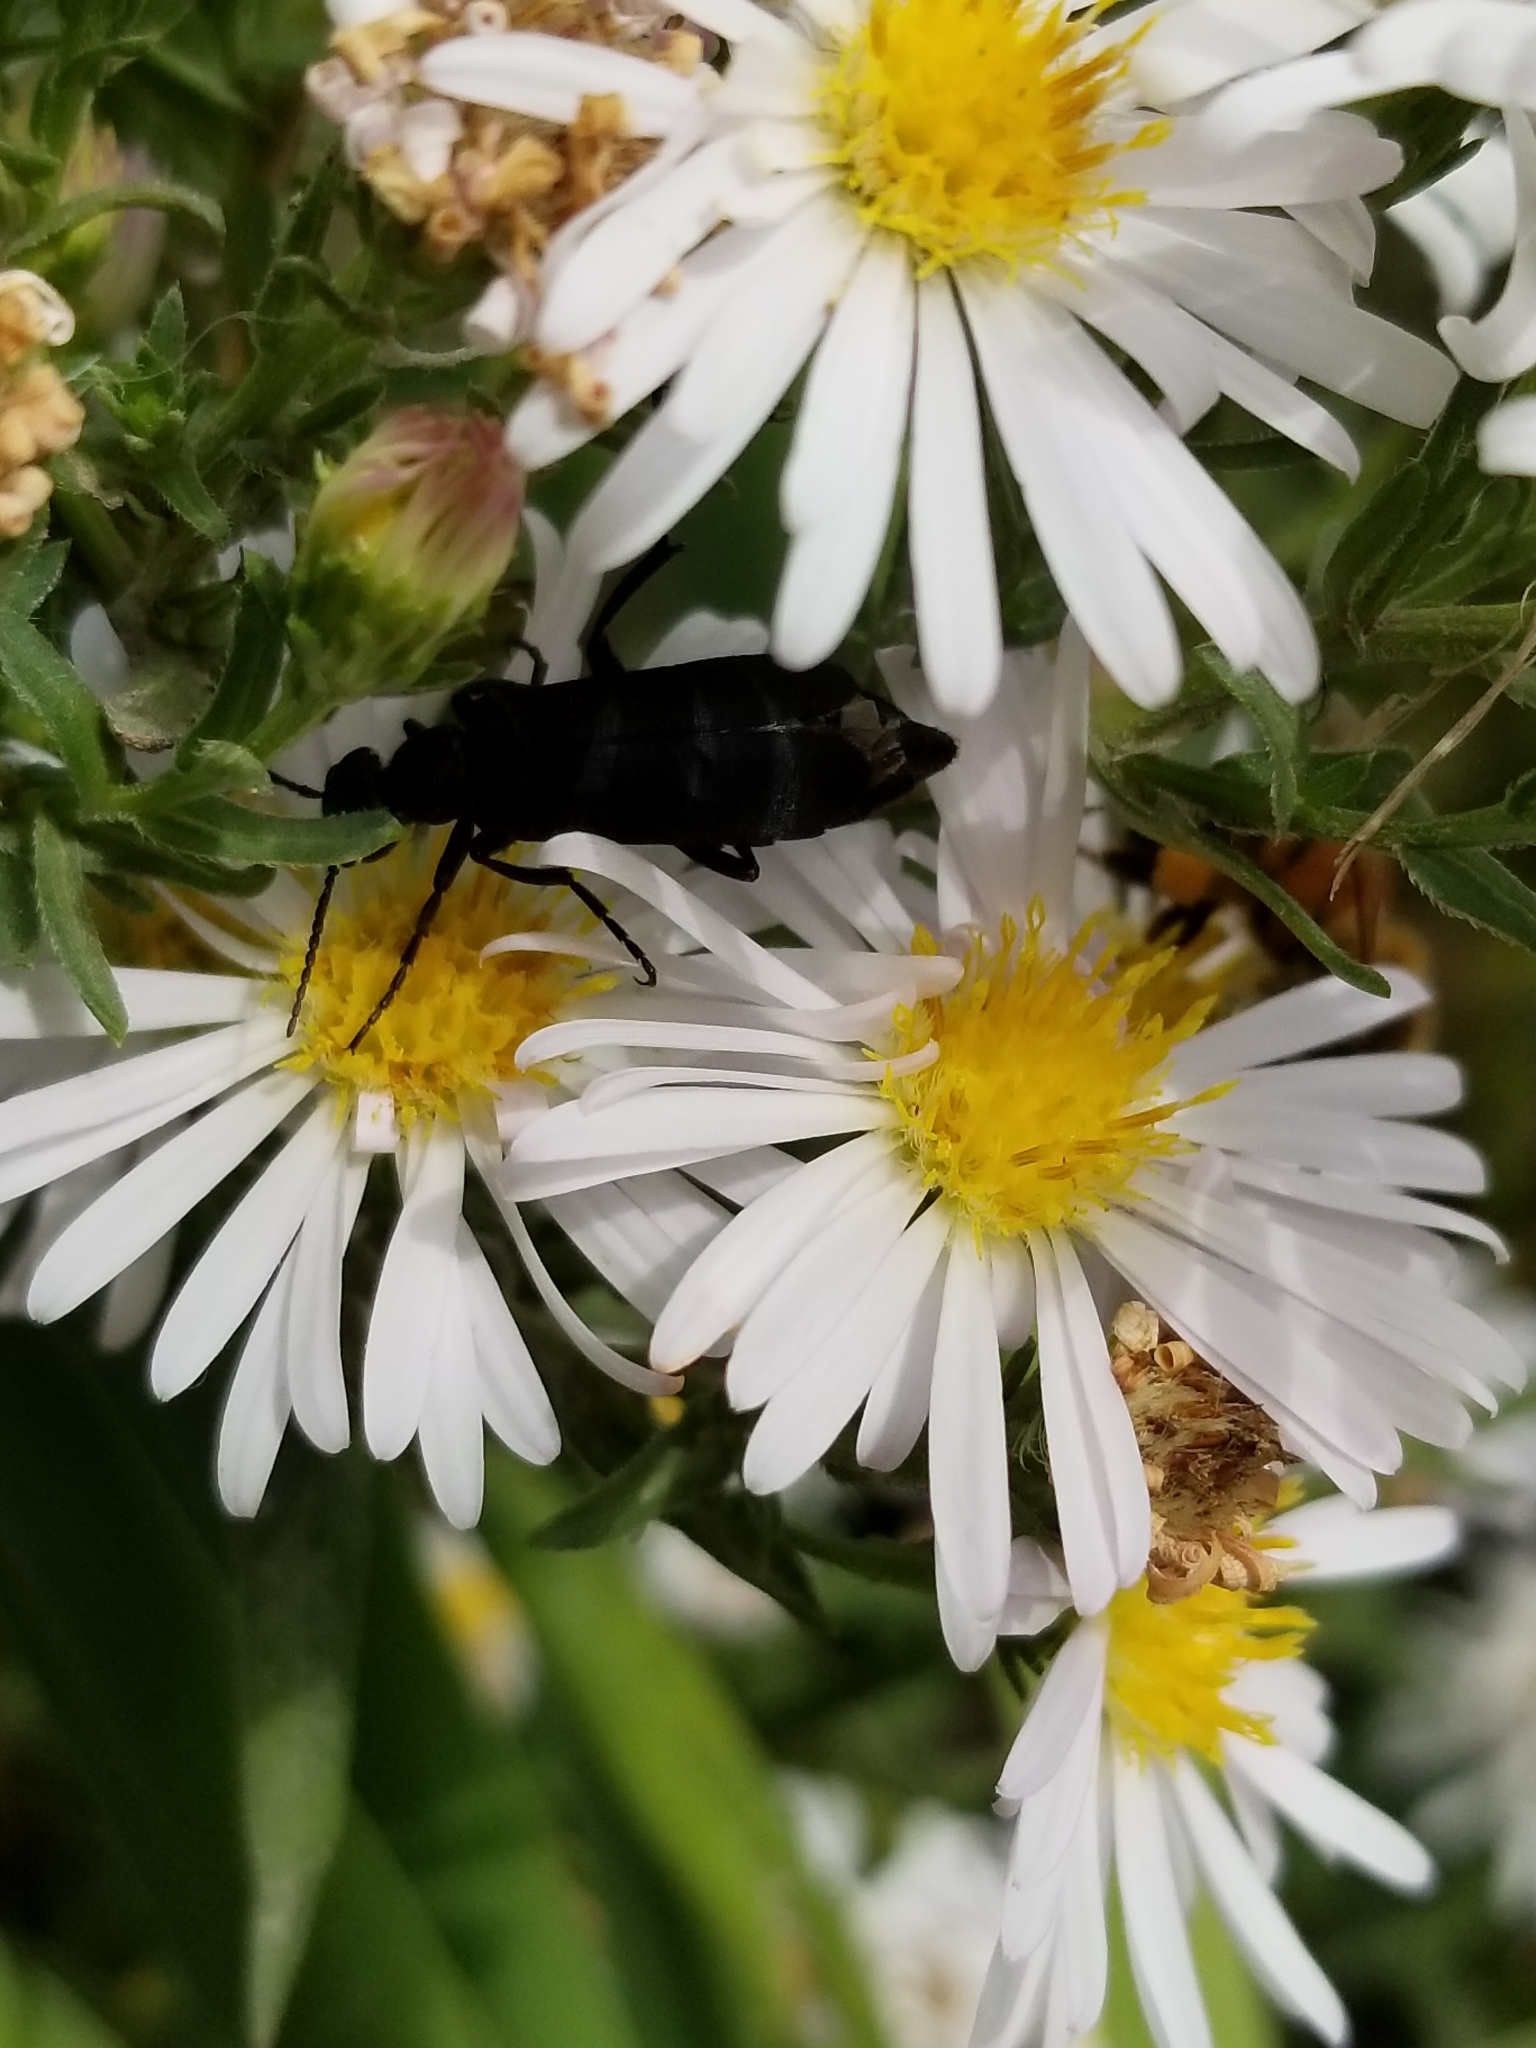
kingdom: Animalia
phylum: Arthropoda
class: Insecta
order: Coleoptera
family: Meloidae
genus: Epicauta
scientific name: Epicauta pensylvanica
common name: Black blister beetle
